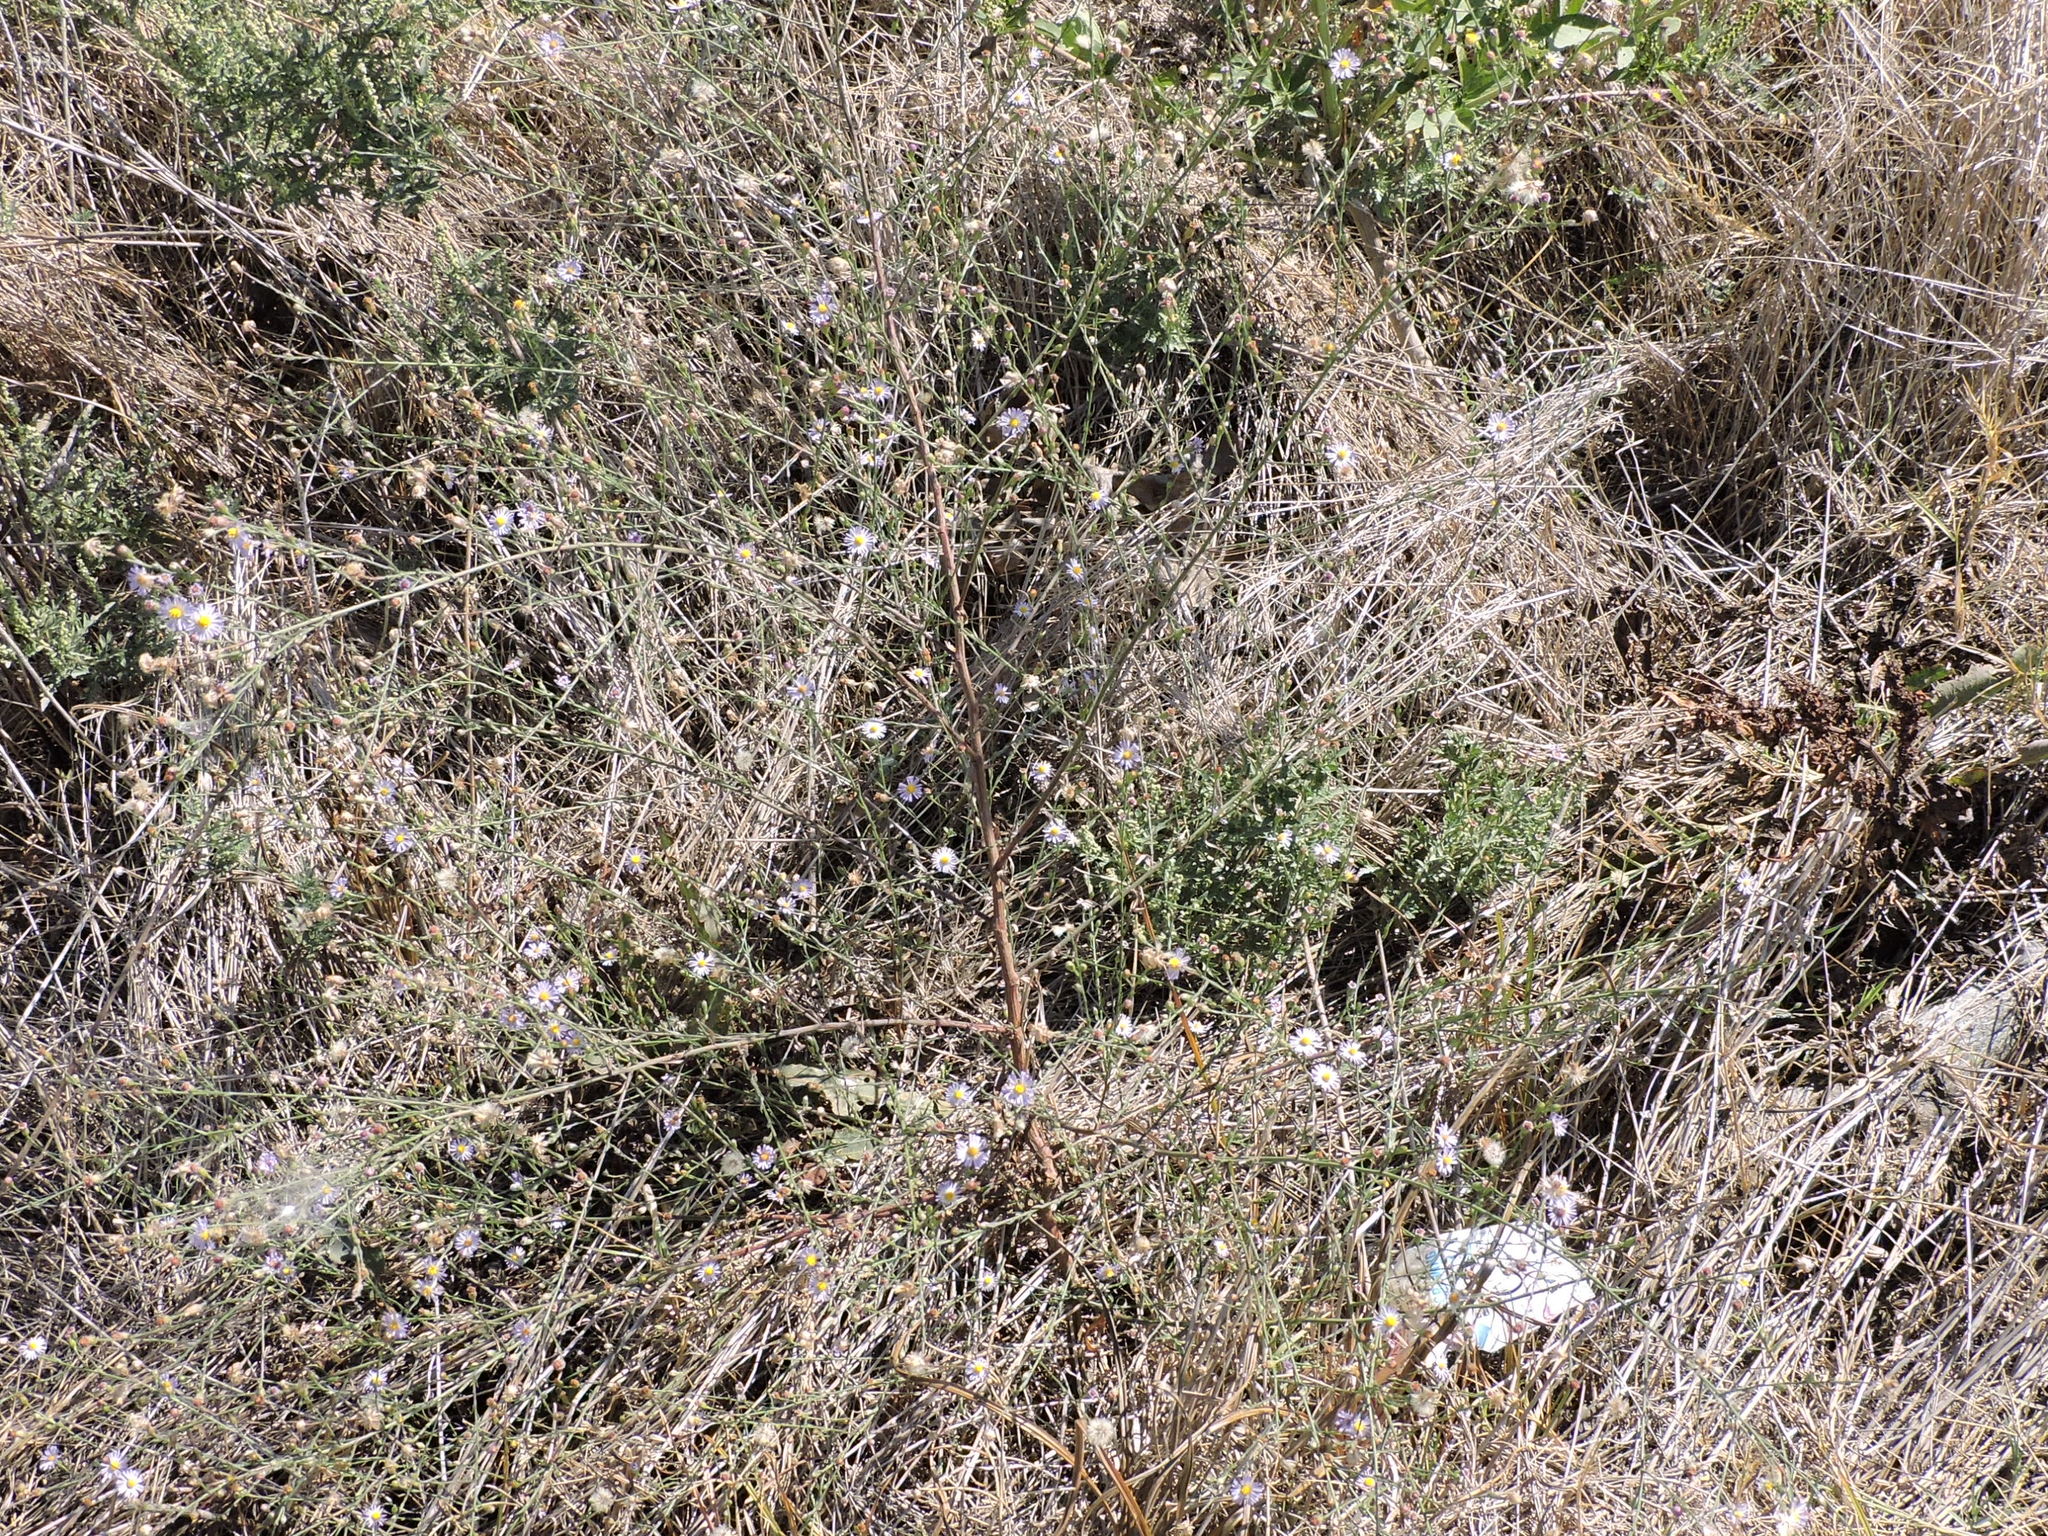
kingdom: Plantae
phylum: Tracheophyta
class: Magnoliopsida
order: Asterales
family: Asteraceae
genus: Symphyotrichum
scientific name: Symphyotrichum divaricatum
